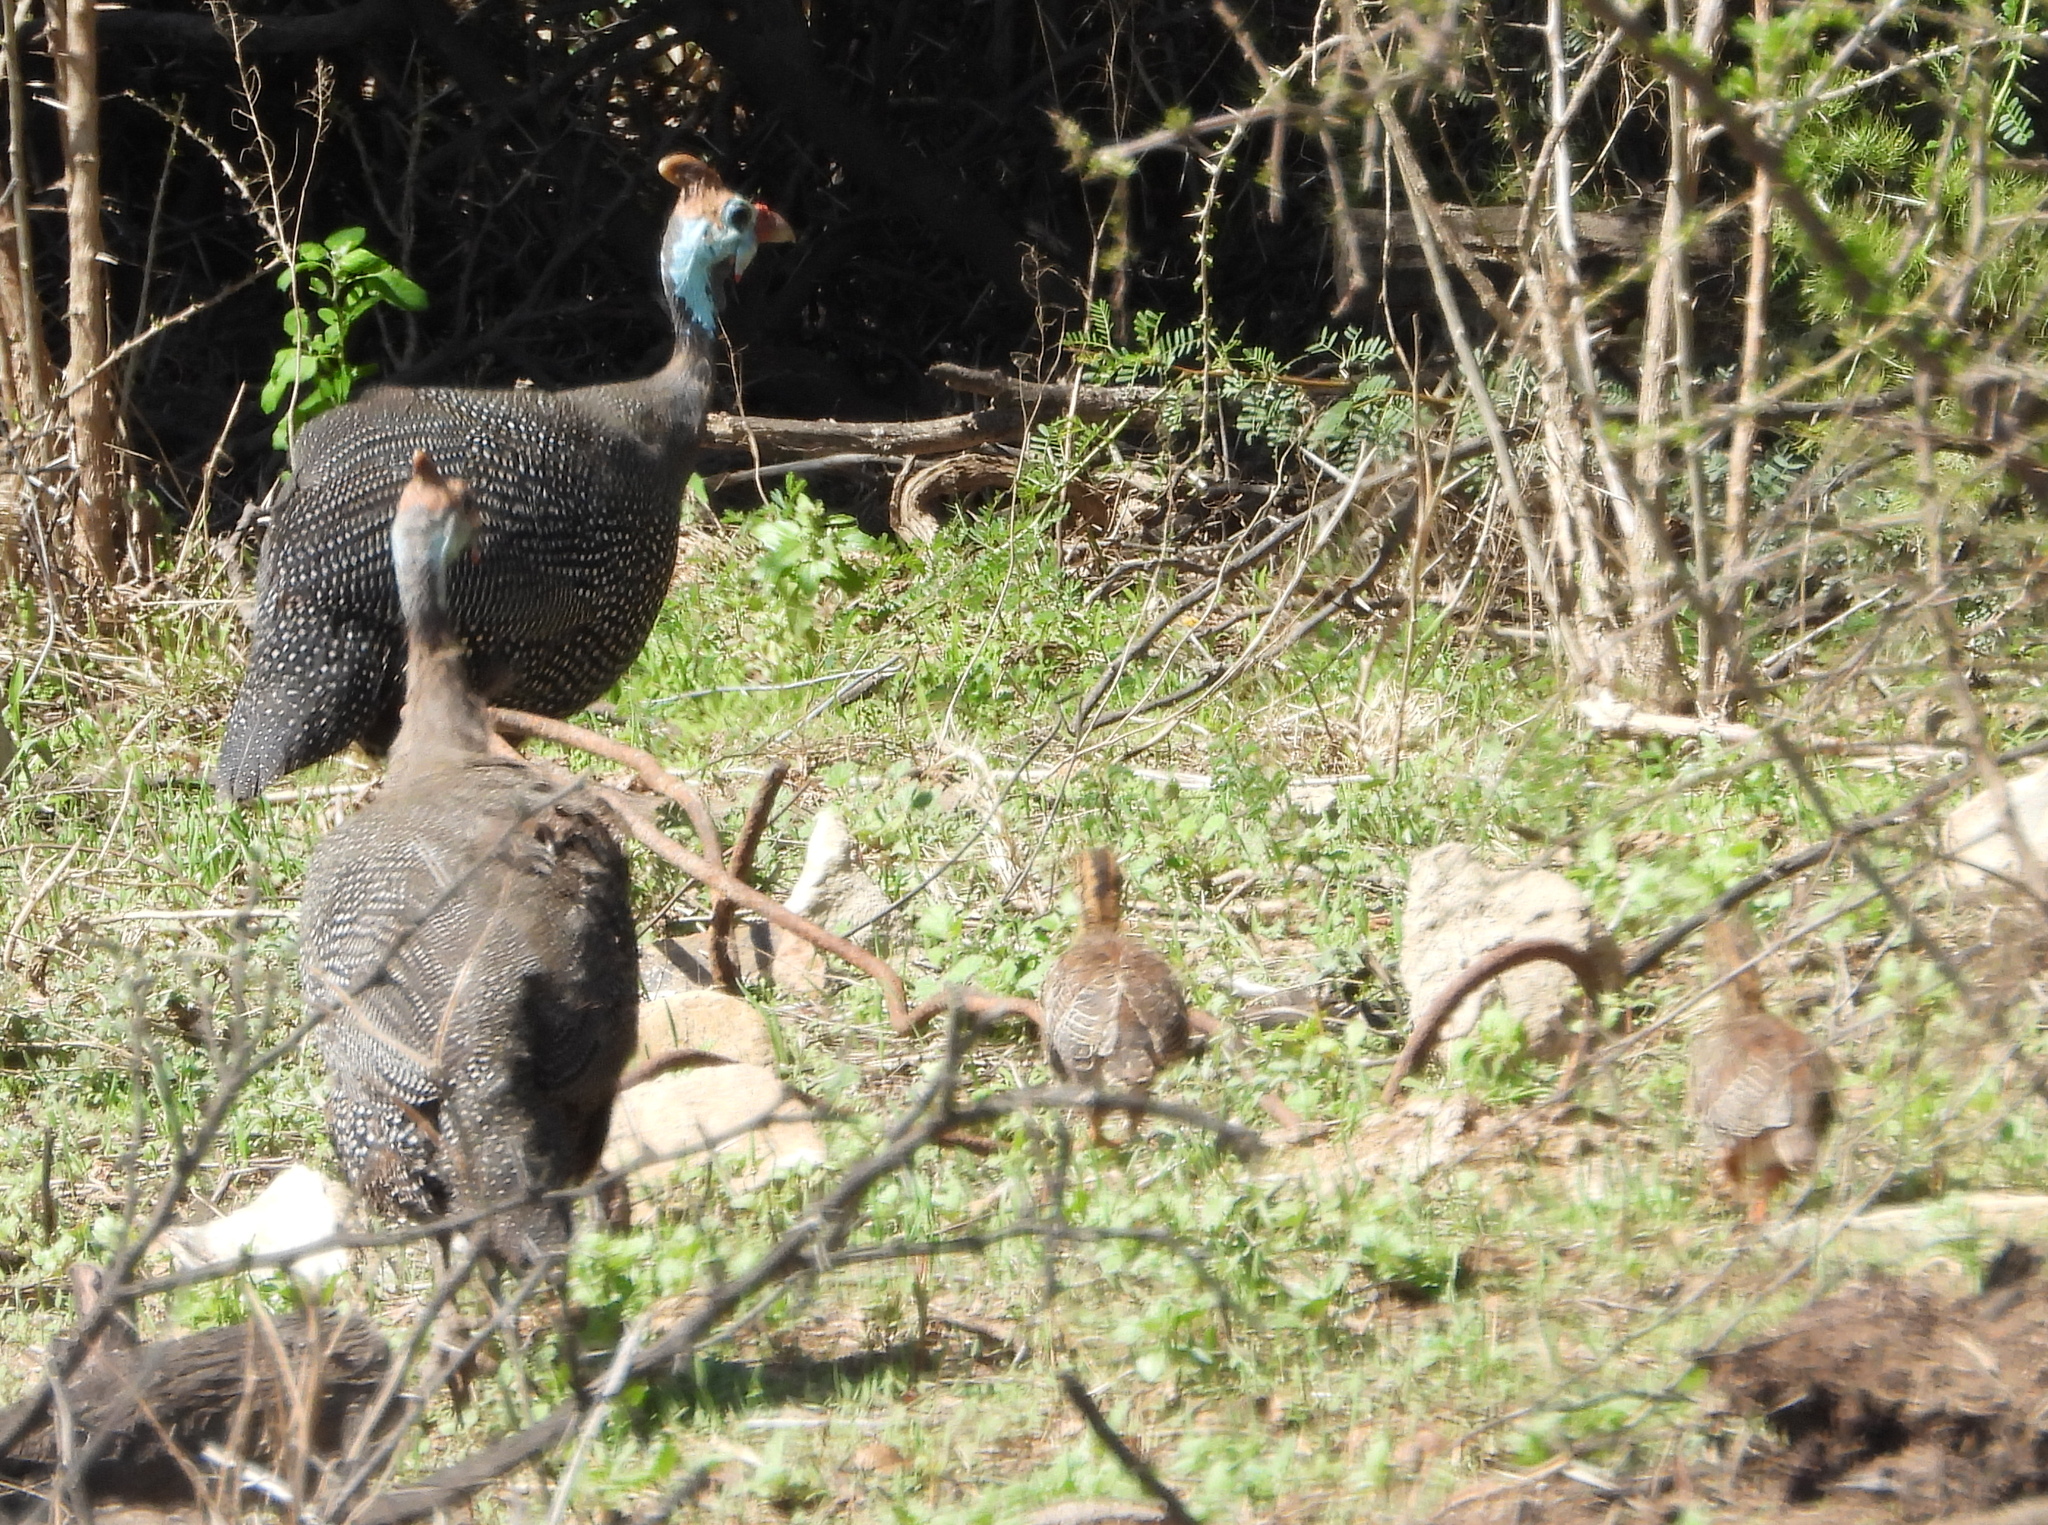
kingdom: Animalia
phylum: Chordata
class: Aves
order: Galliformes
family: Numididae
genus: Numida
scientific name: Numida meleagris
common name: Helmeted guineafowl
